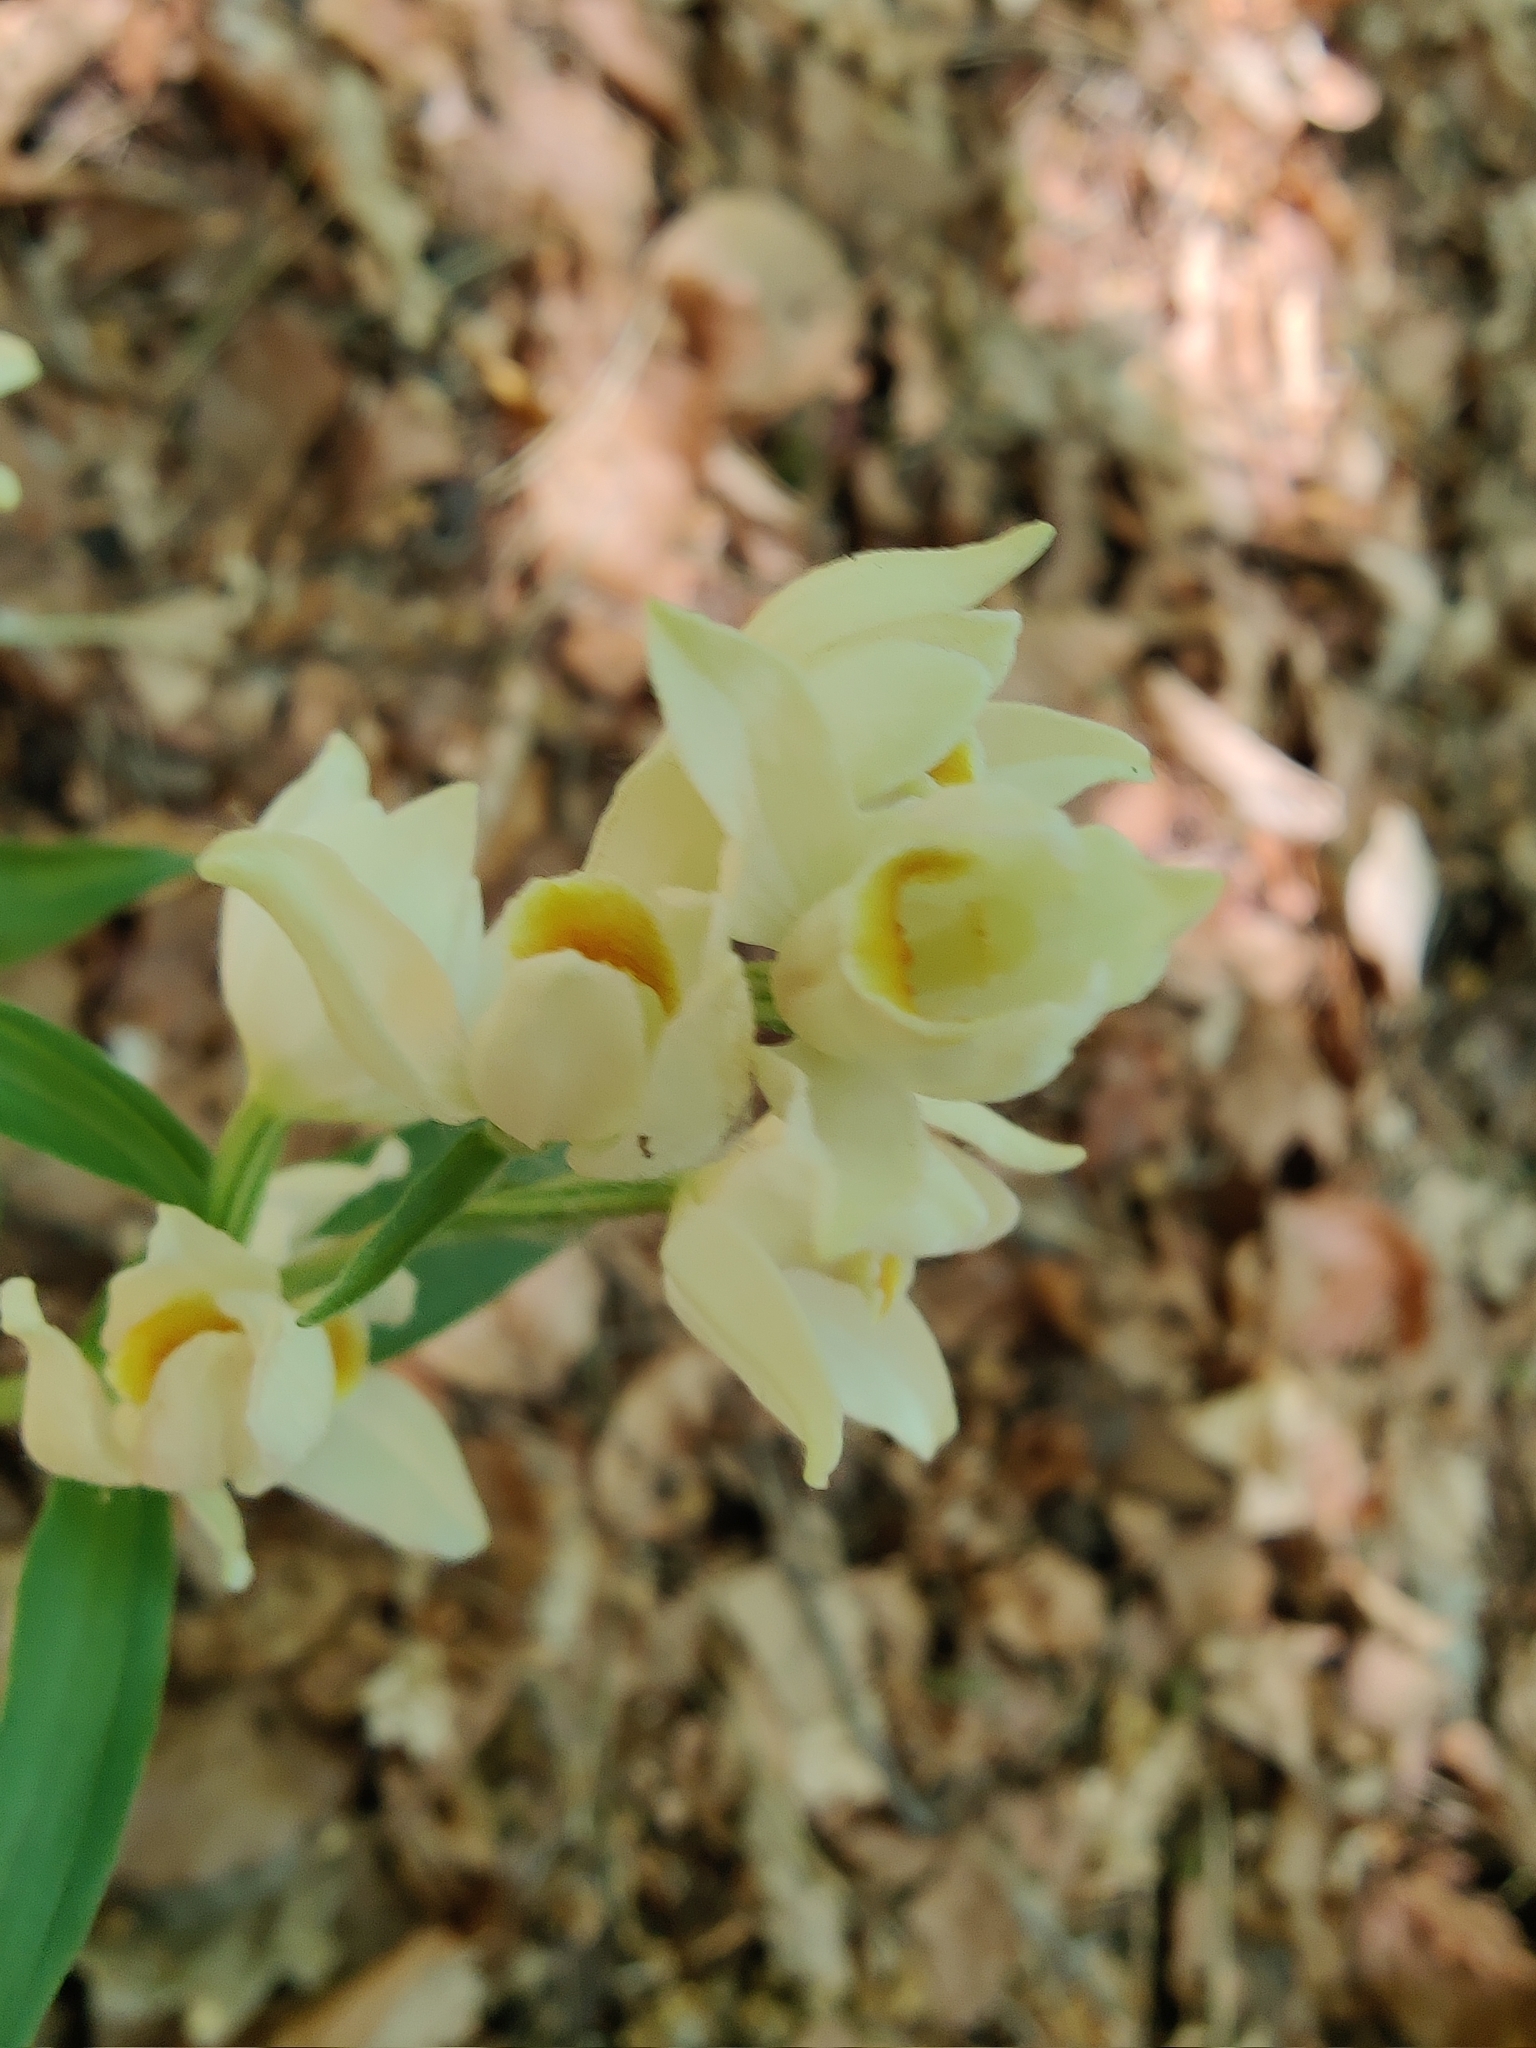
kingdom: Plantae
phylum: Tracheophyta
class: Liliopsida
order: Asparagales
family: Orchidaceae
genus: Cephalanthera
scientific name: Cephalanthera damasonium
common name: White helleborine
